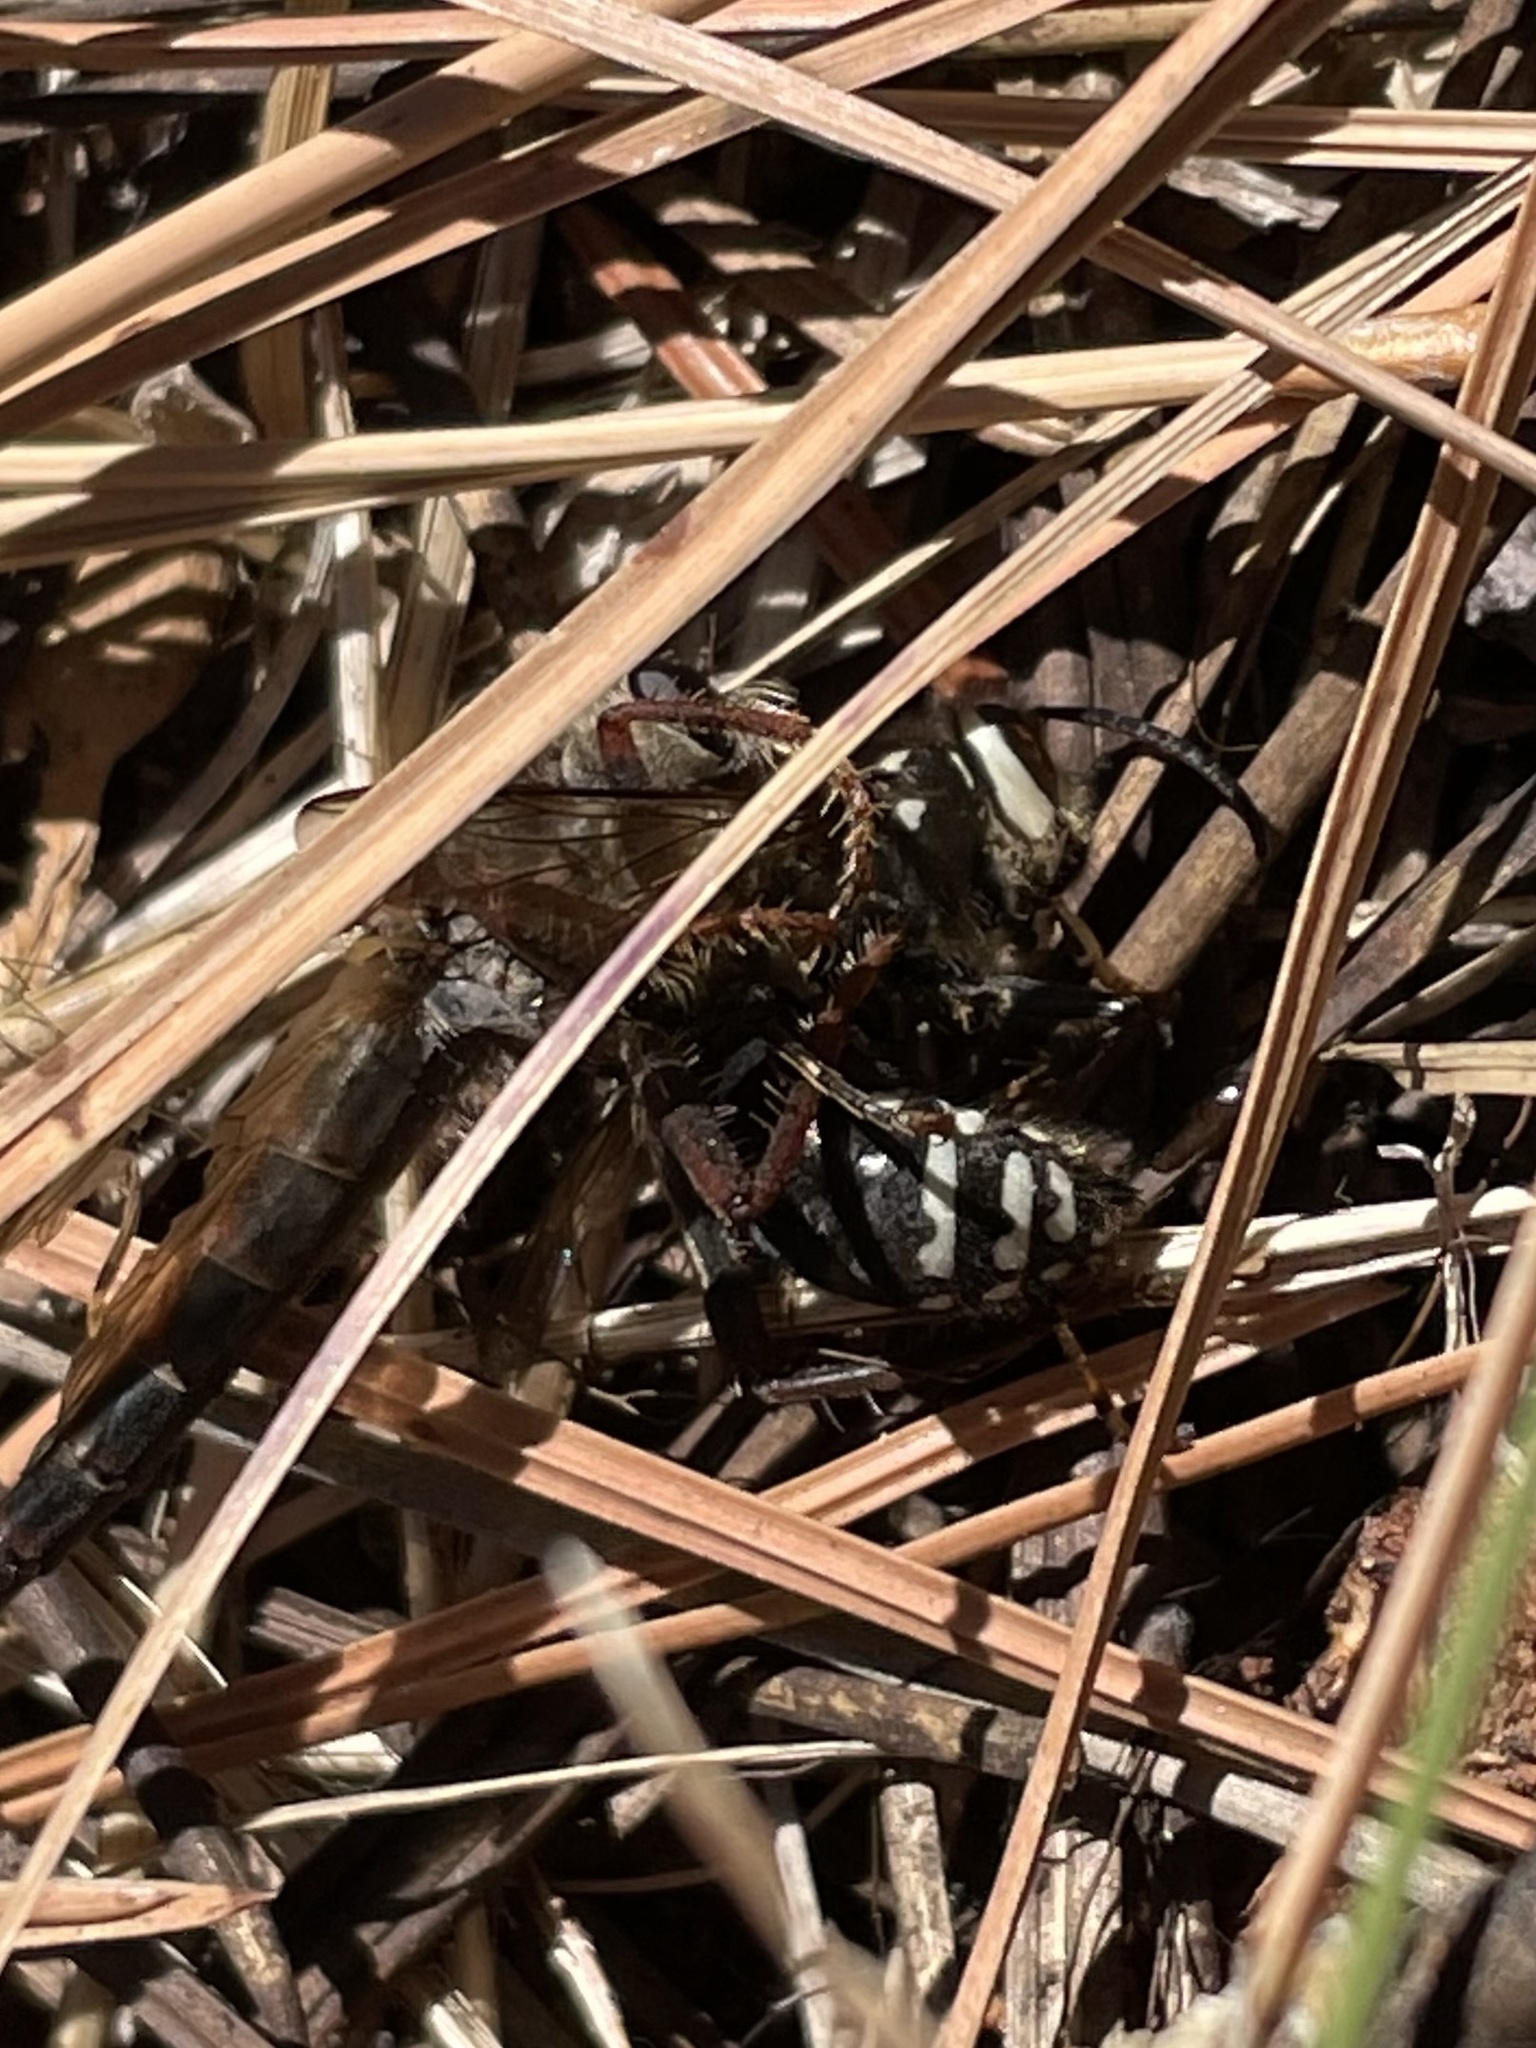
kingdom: Animalia
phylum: Arthropoda
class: Insecta
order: Hymenoptera
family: Vespidae
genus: Dolichovespula
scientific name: Dolichovespula maculata
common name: Bald-faced hornet
